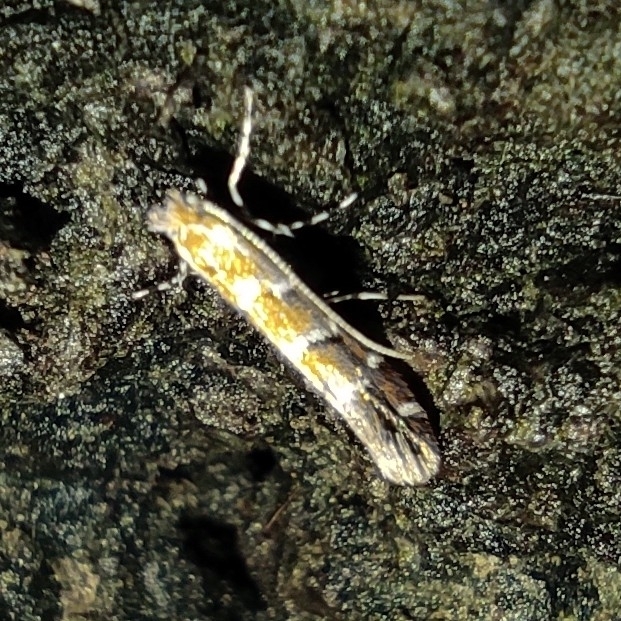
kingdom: Animalia
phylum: Arthropoda
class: Insecta
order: Lepidoptera
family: Gracillariidae
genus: Cameraria
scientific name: Cameraria ohridella
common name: Horse-chestnut leaf-miner
